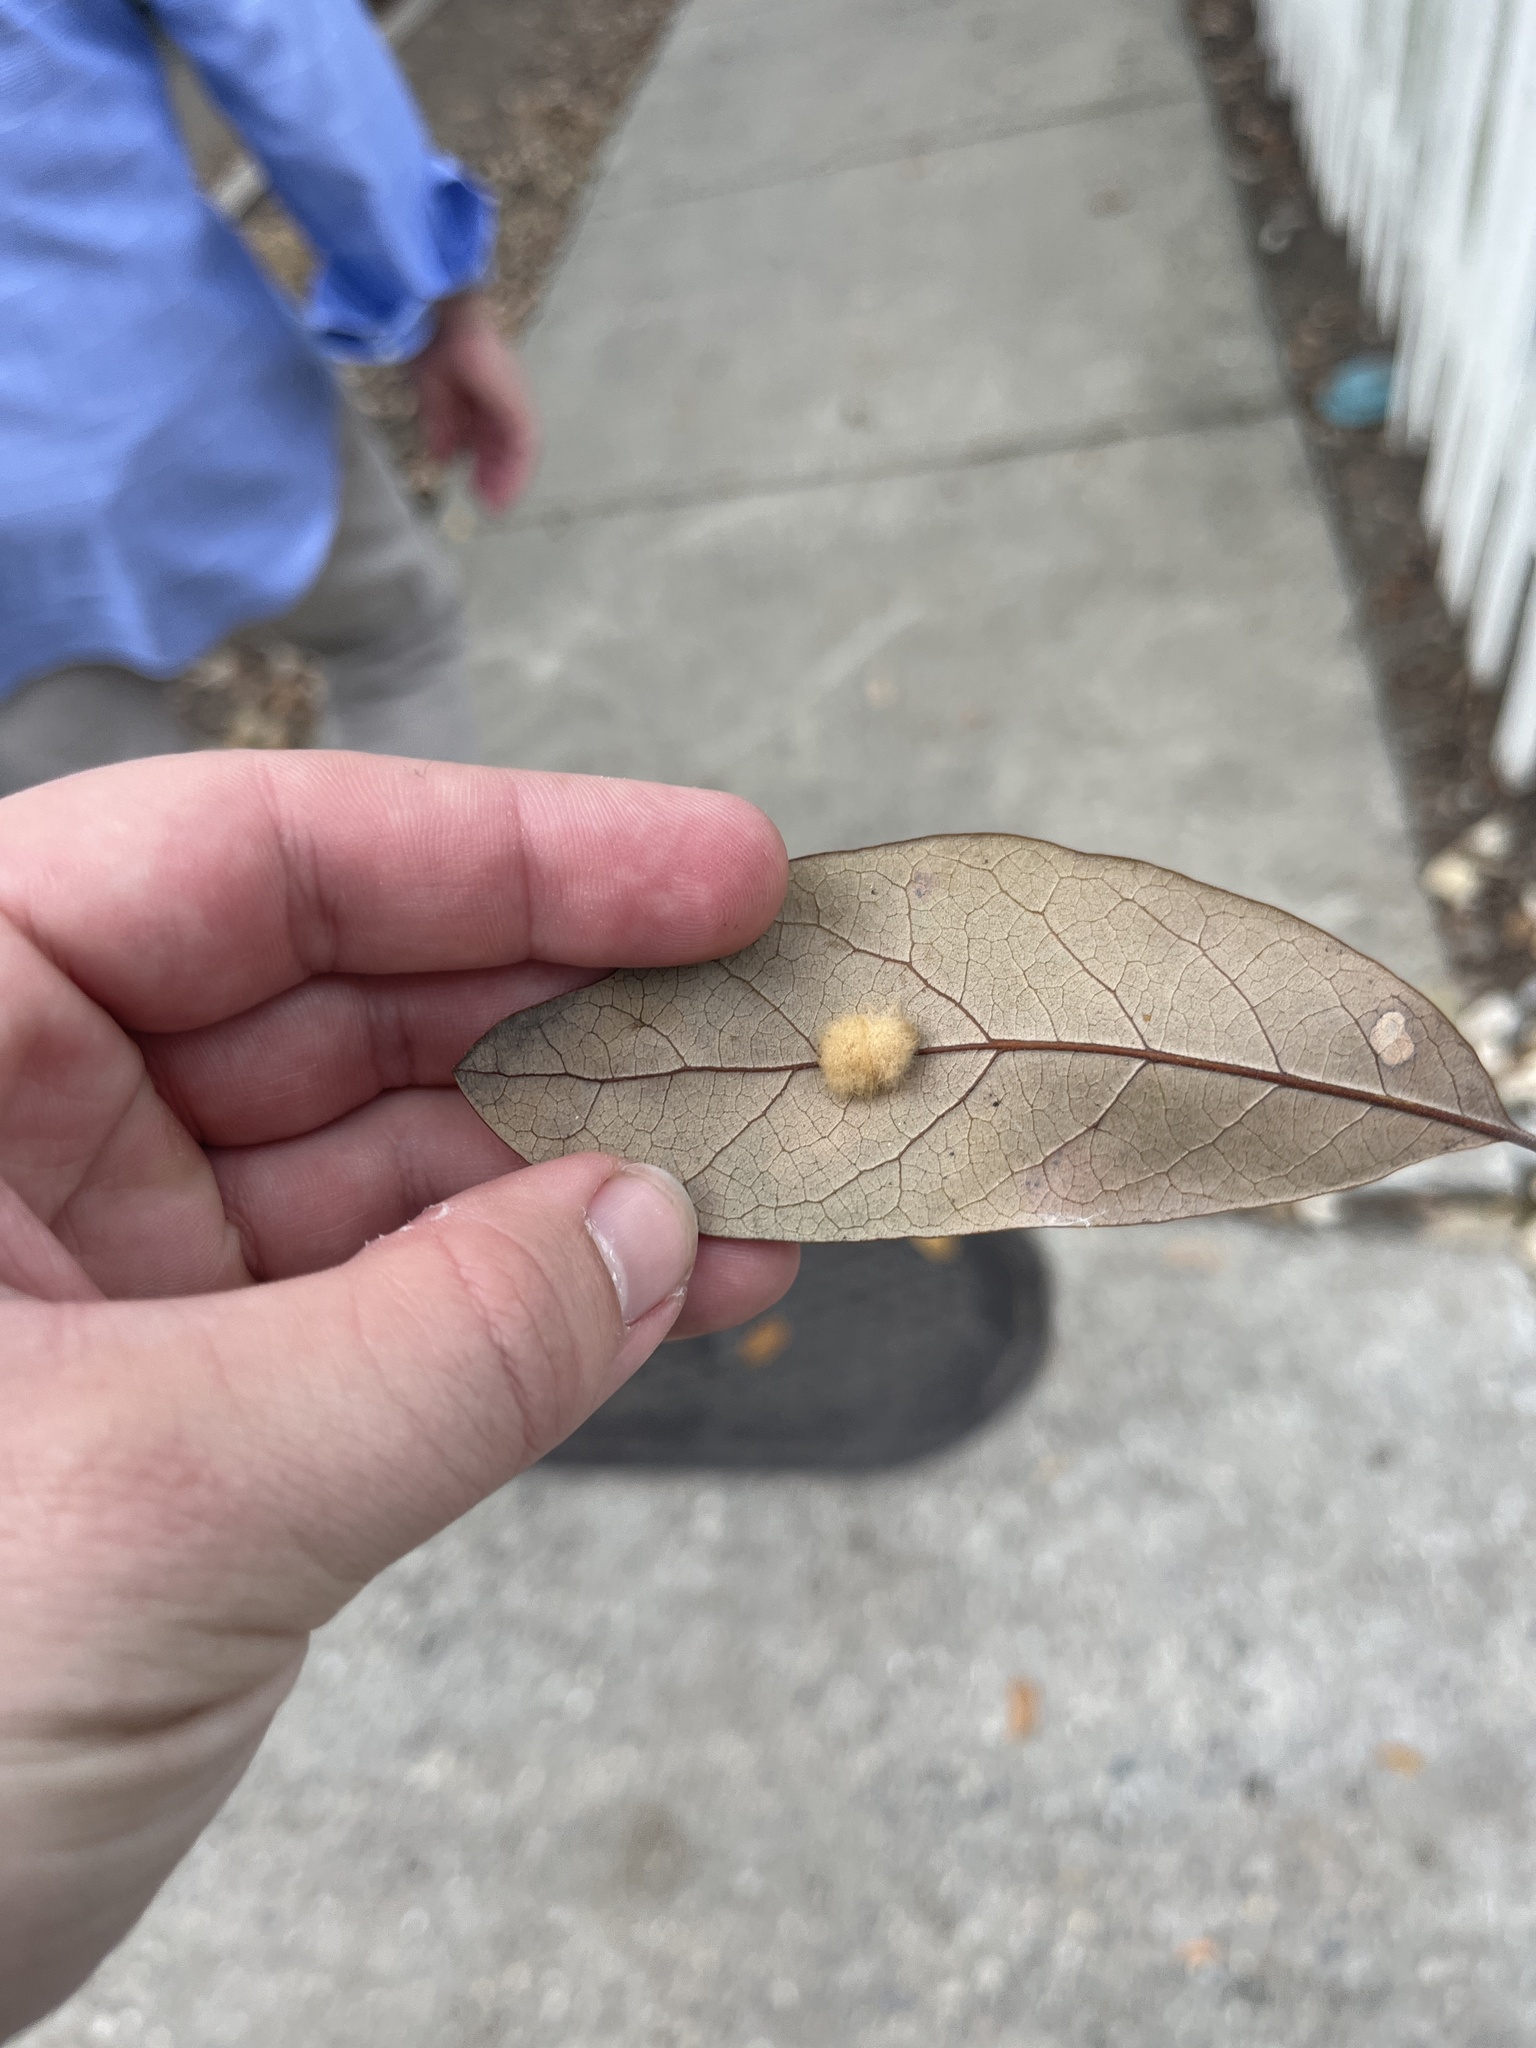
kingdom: Animalia
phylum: Arthropoda
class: Insecta
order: Hymenoptera
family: Cynipidae
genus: Andricus
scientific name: Andricus Druon quercuslanigerum
